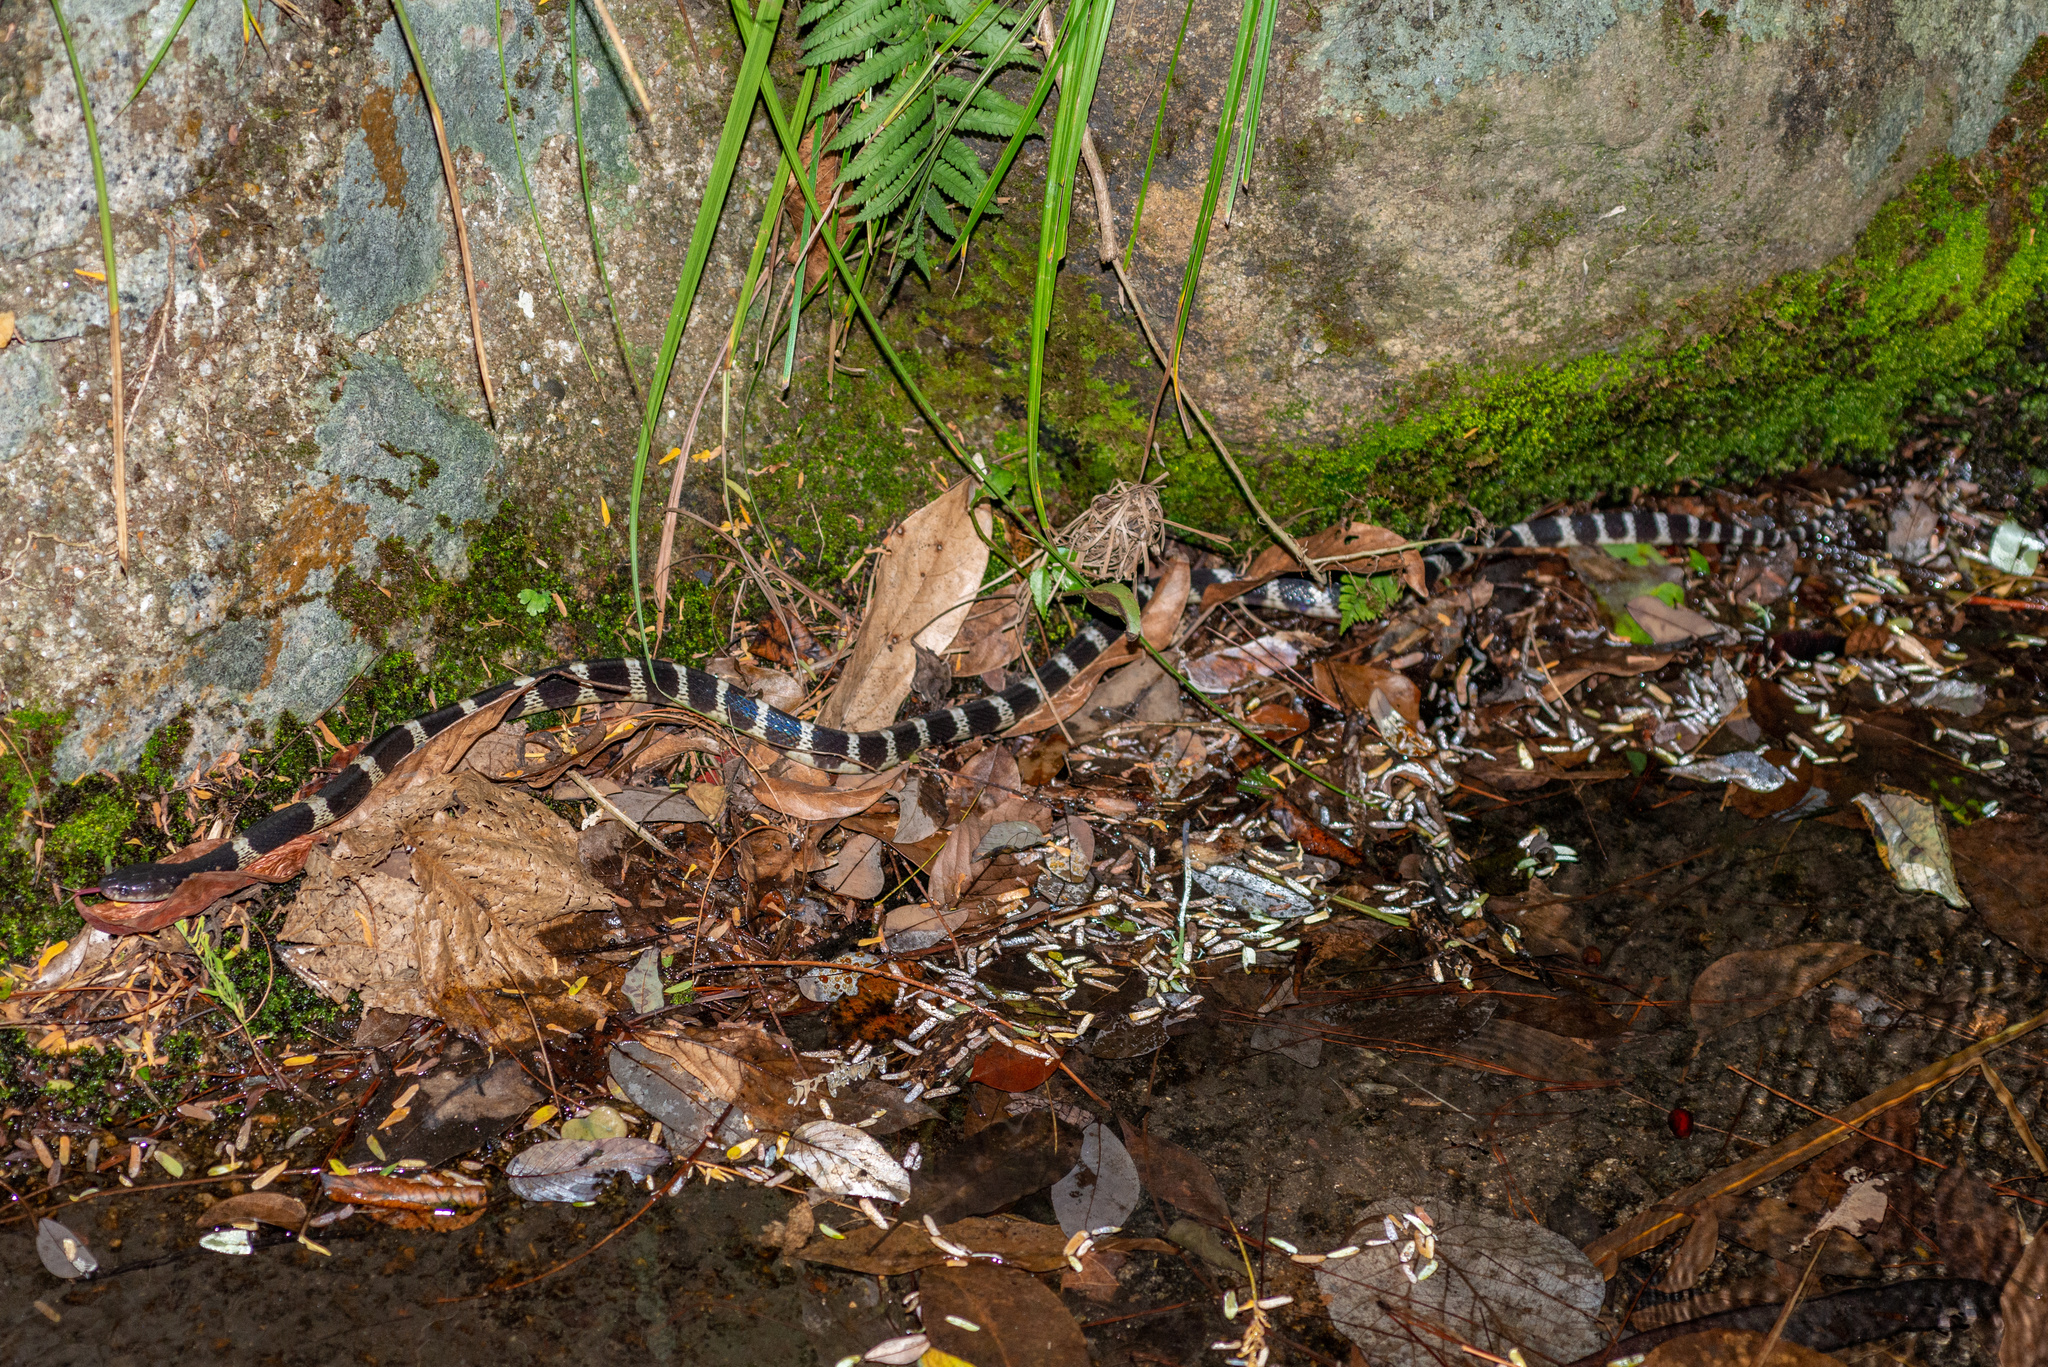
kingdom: Animalia
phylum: Chordata
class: Squamata
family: Elapidae
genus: Bungarus
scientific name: Bungarus multicinctus
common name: Many-banded krait
